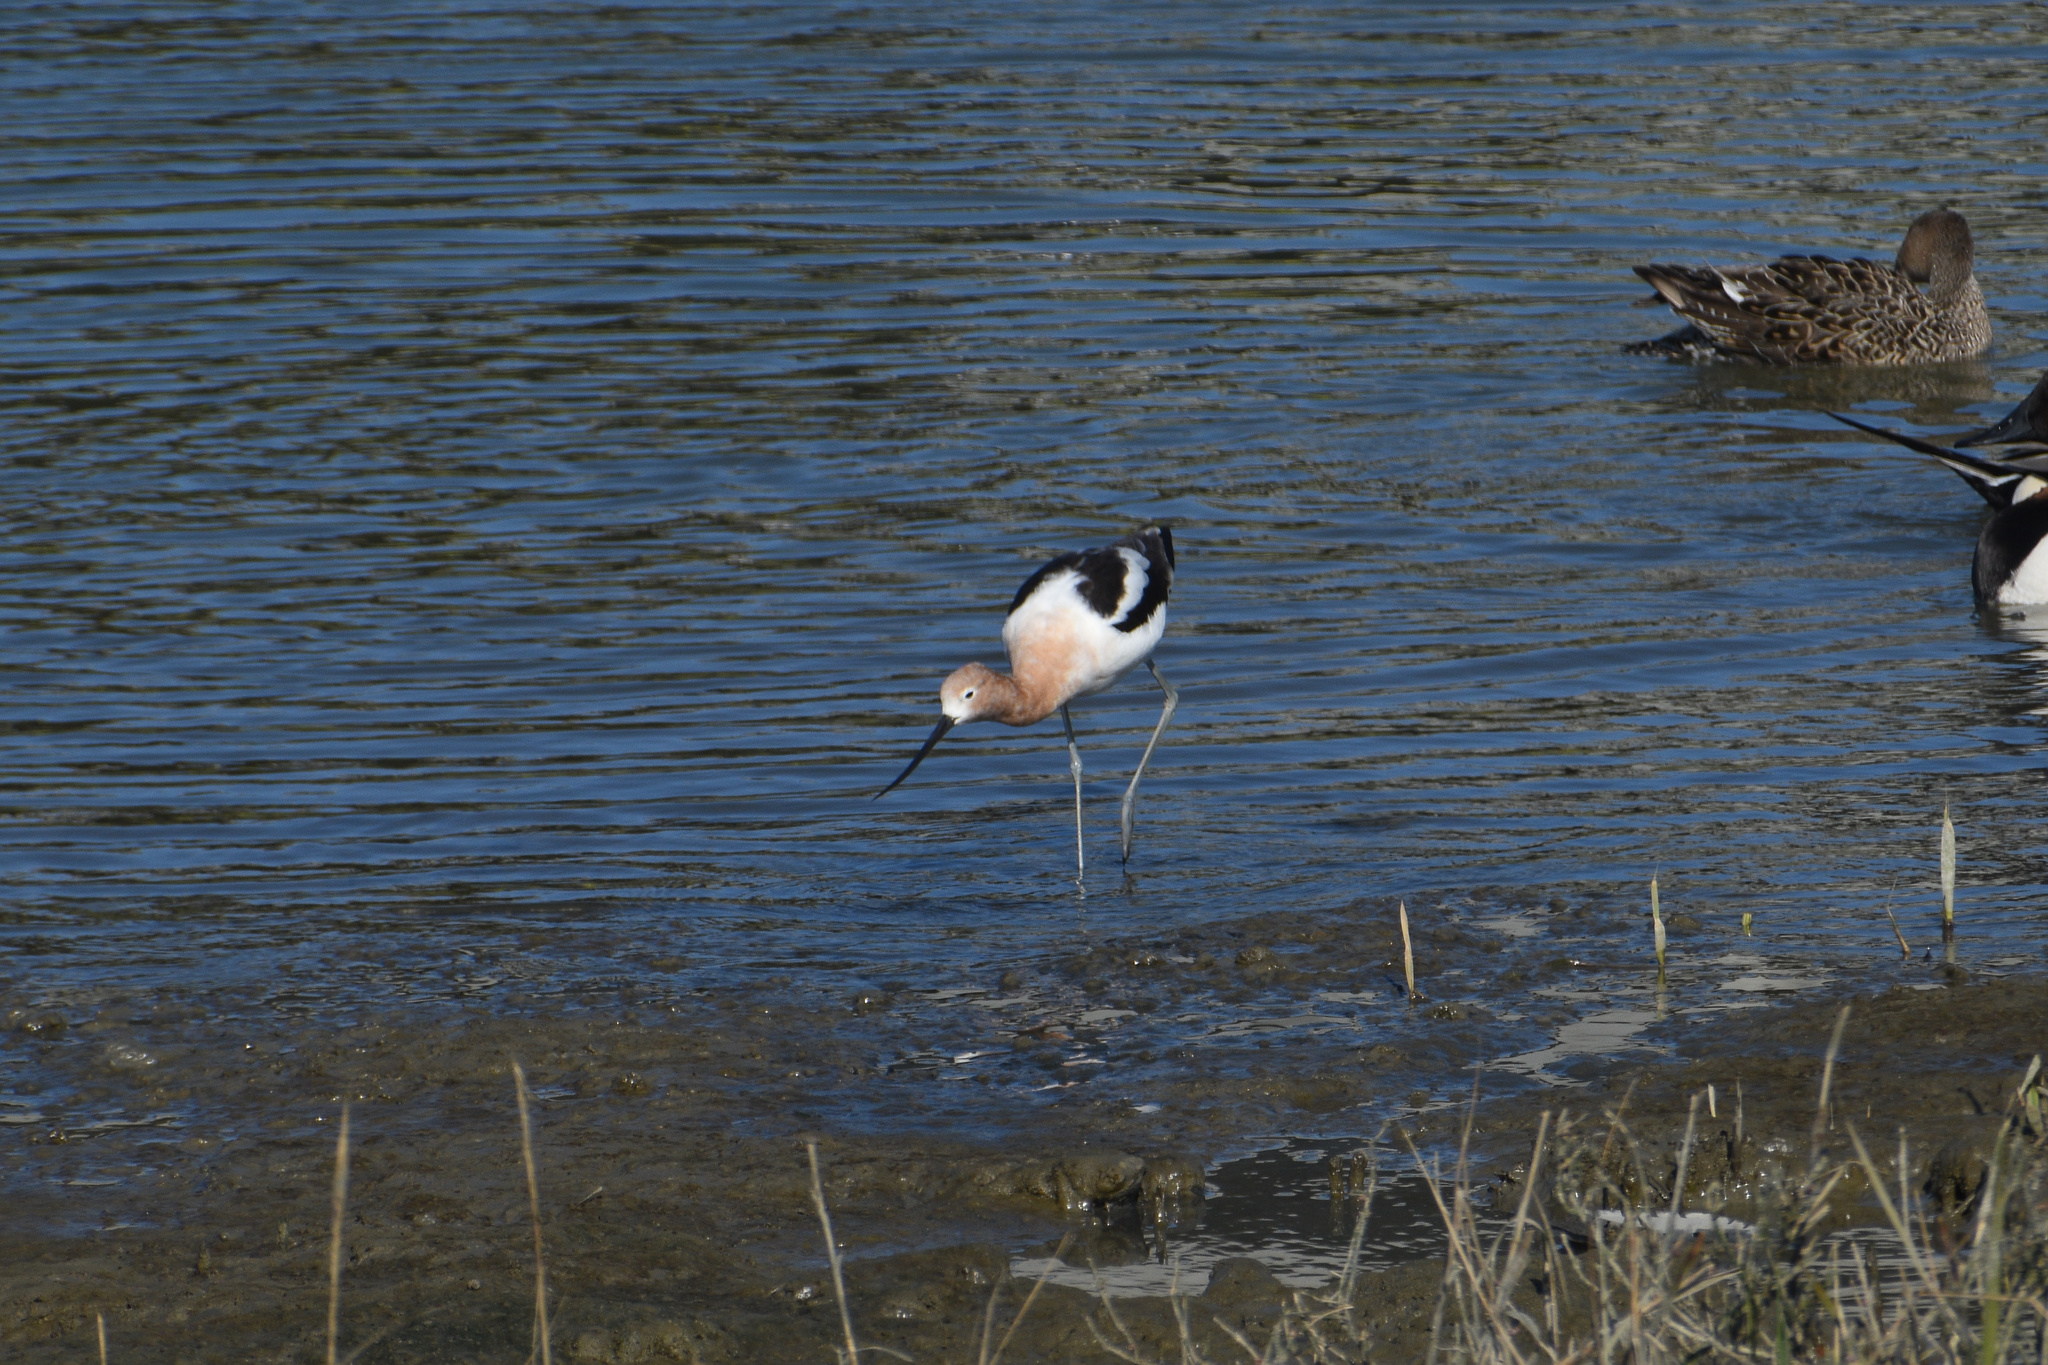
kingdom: Animalia
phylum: Chordata
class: Aves
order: Charadriiformes
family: Recurvirostridae
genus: Recurvirostra
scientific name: Recurvirostra americana
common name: American avocet
